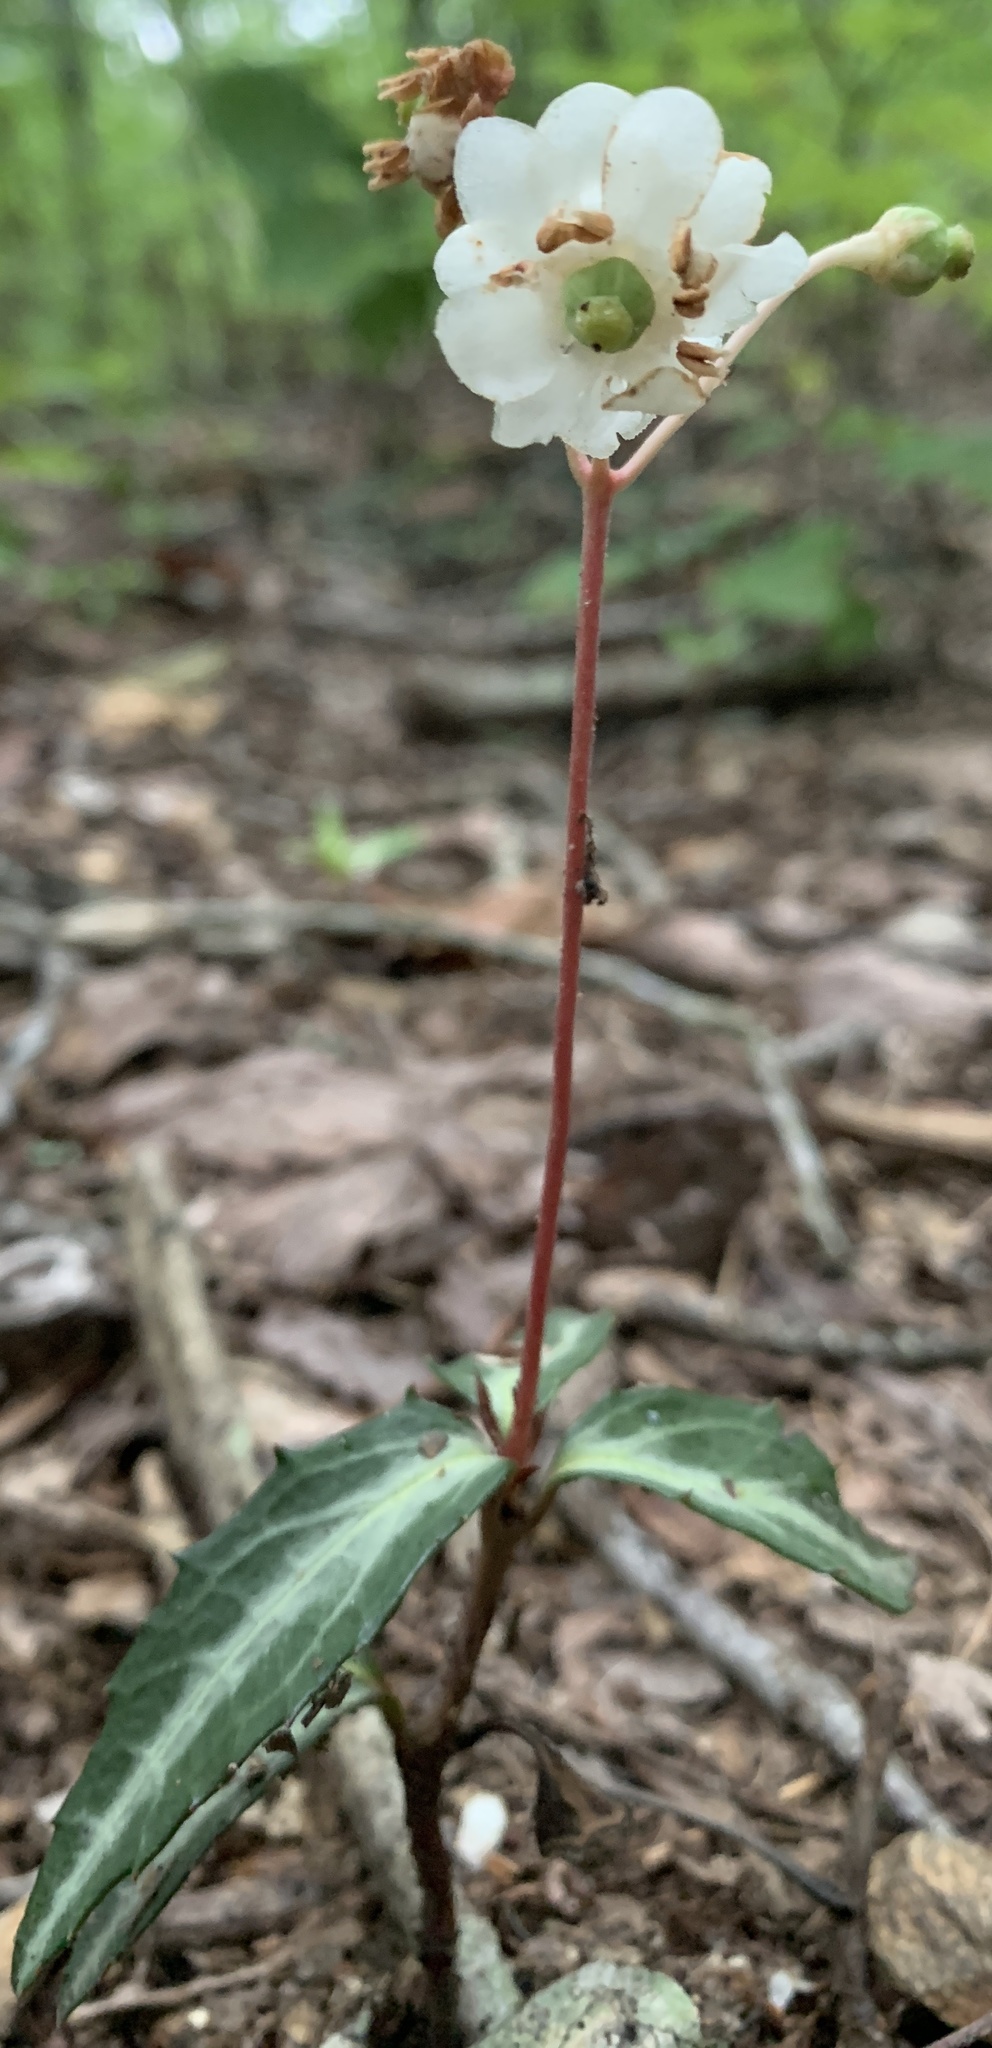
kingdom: Plantae
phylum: Tracheophyta
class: Magnoliopsida
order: Ericales
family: Ericaceae
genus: Chimaphila
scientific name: Chimaphila maculata
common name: Spotted pipsissewa
